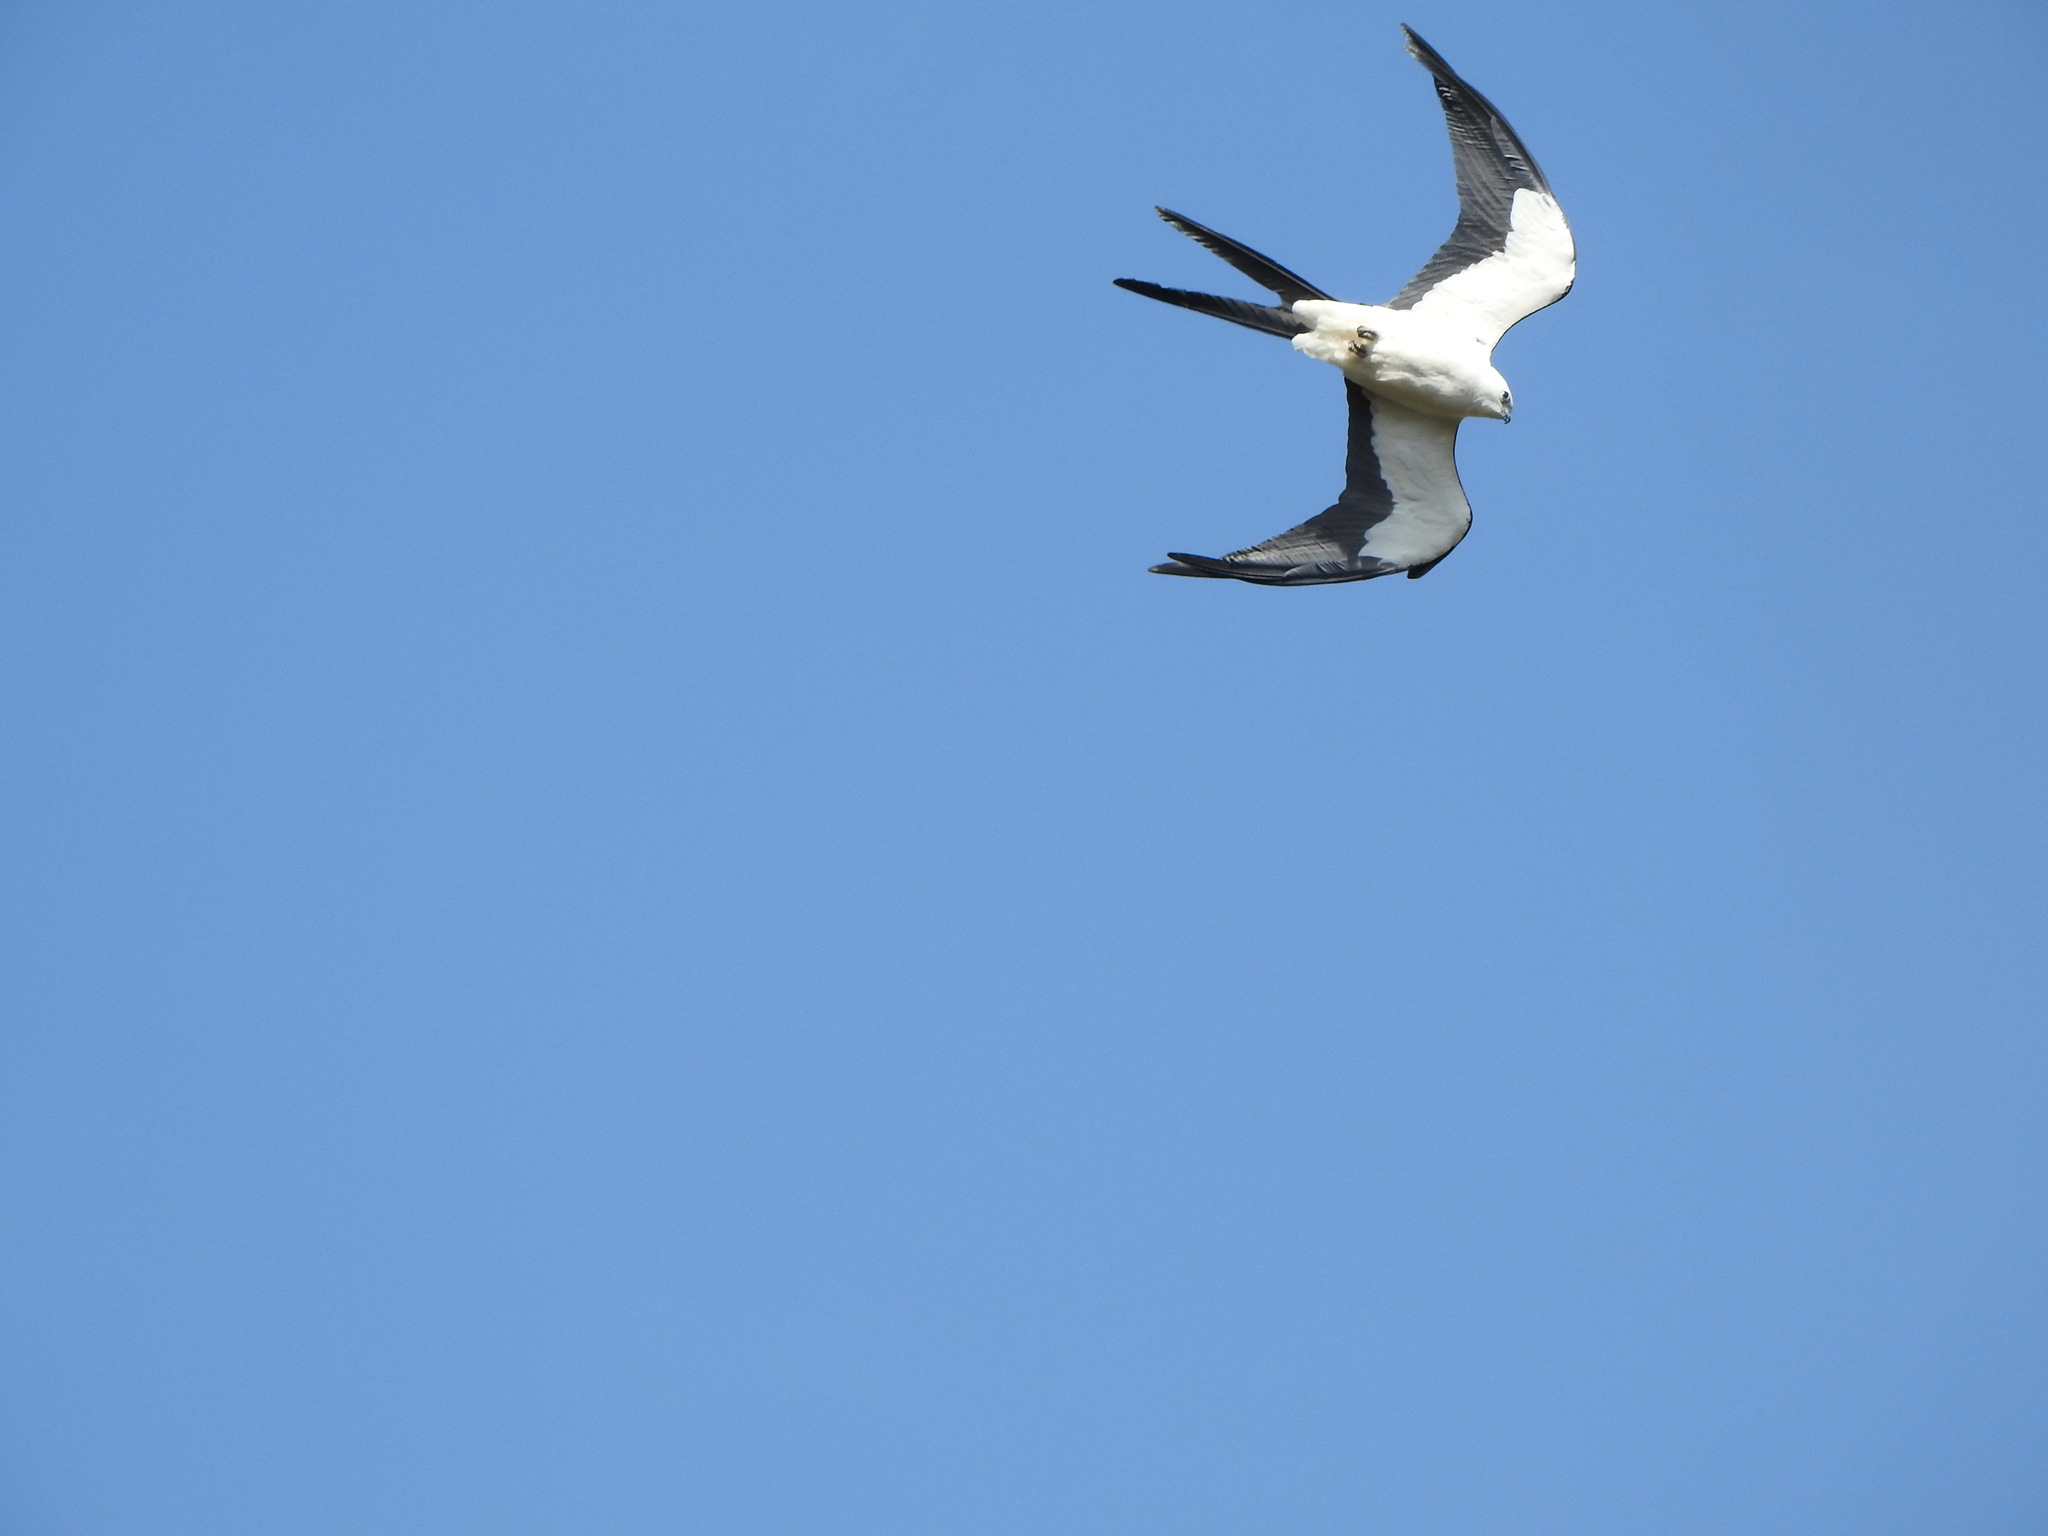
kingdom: Animalia
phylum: Chordata
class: Aves
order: Accipitriformes
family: Accipitridae
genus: Elanoides
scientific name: Elanoides forficatus
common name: Swallow-tailed kite
